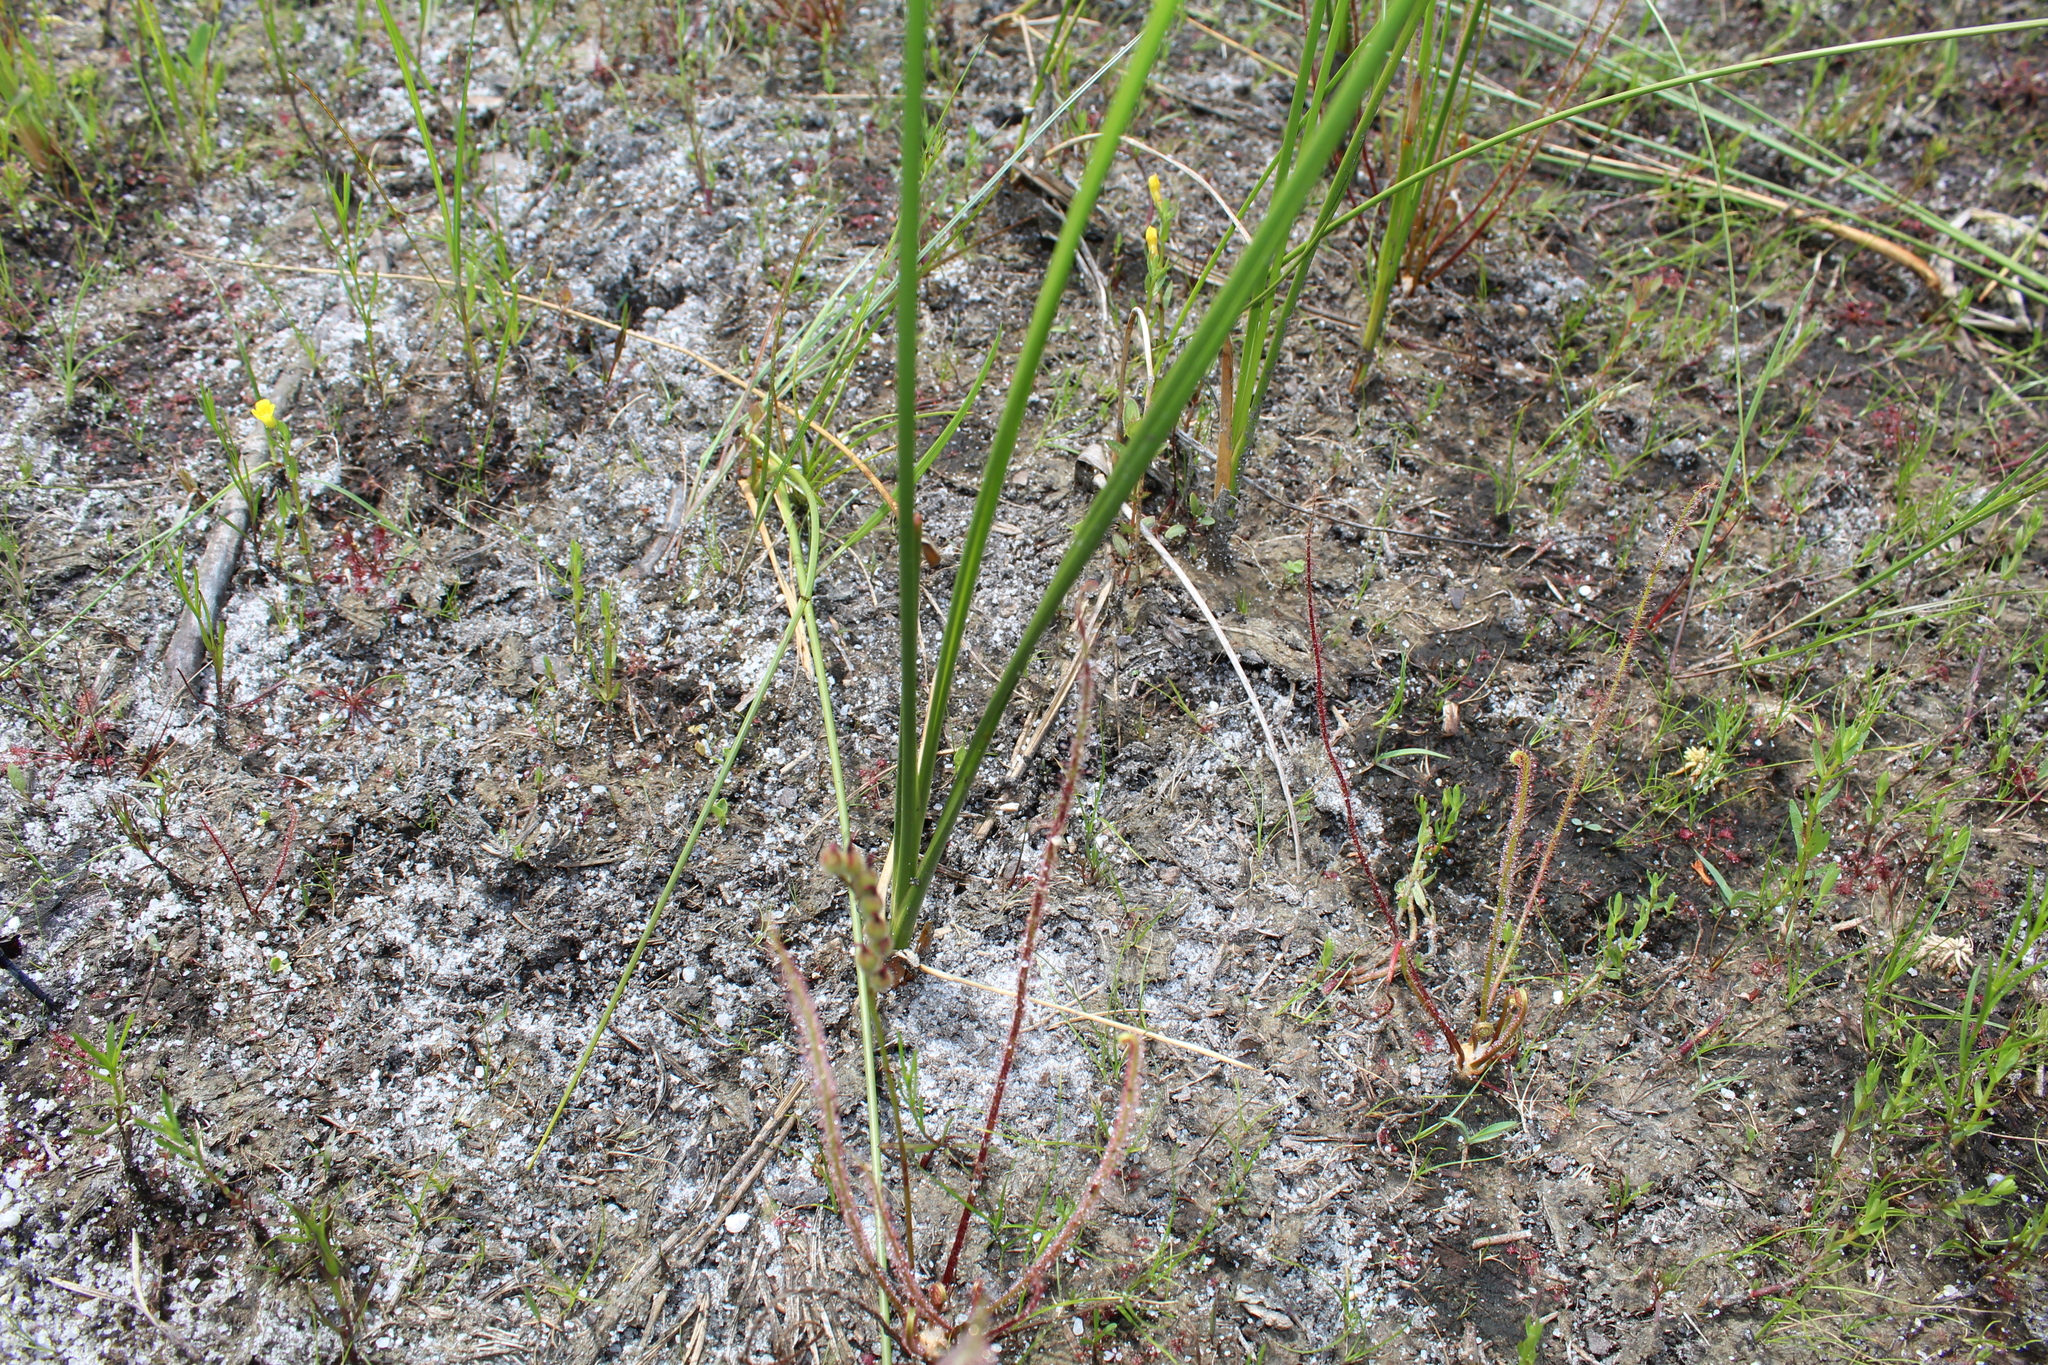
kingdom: Plantae
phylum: Tracheophyta
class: Magnoliopsida
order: Caryophyllales
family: Droseraceae
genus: Drosera
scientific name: Drosera filiformis
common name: Dew-thread
